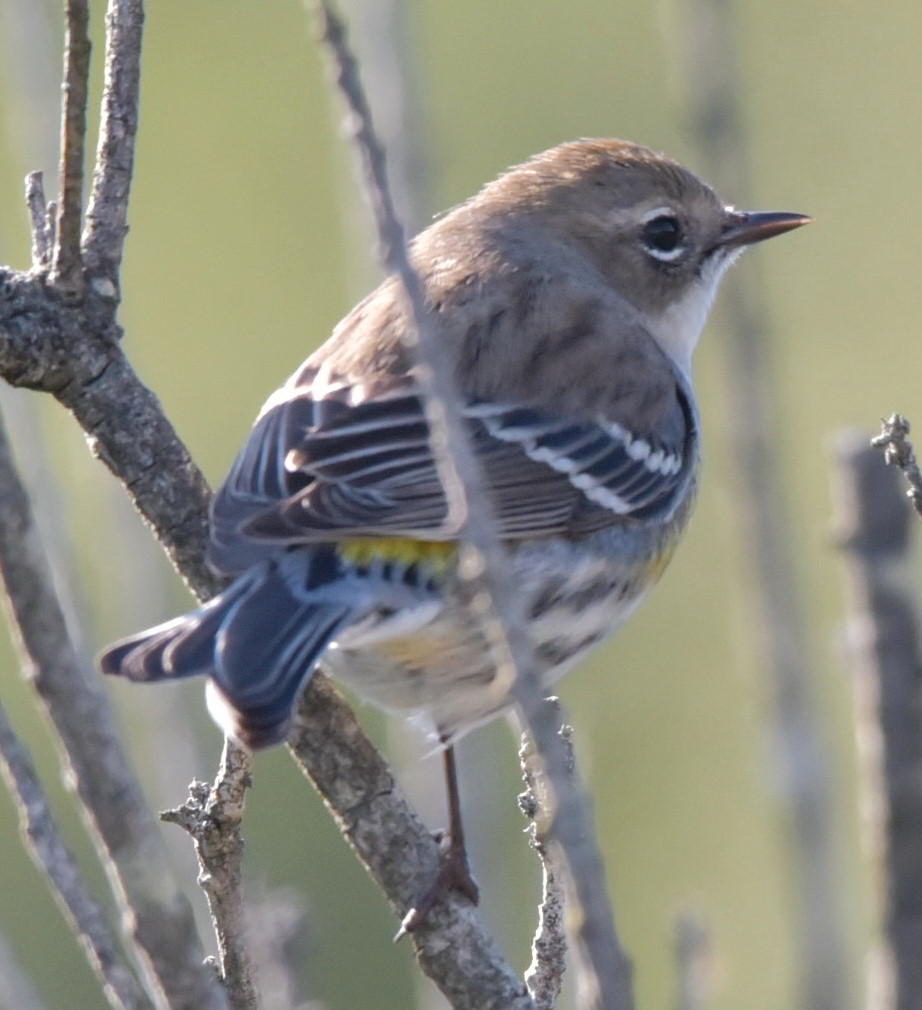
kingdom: Animalia
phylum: Chordata
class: Aves
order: Passeriformes
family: Parulidae
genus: Setophaga
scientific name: Setophaga coronata
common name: Myrtle warbler
